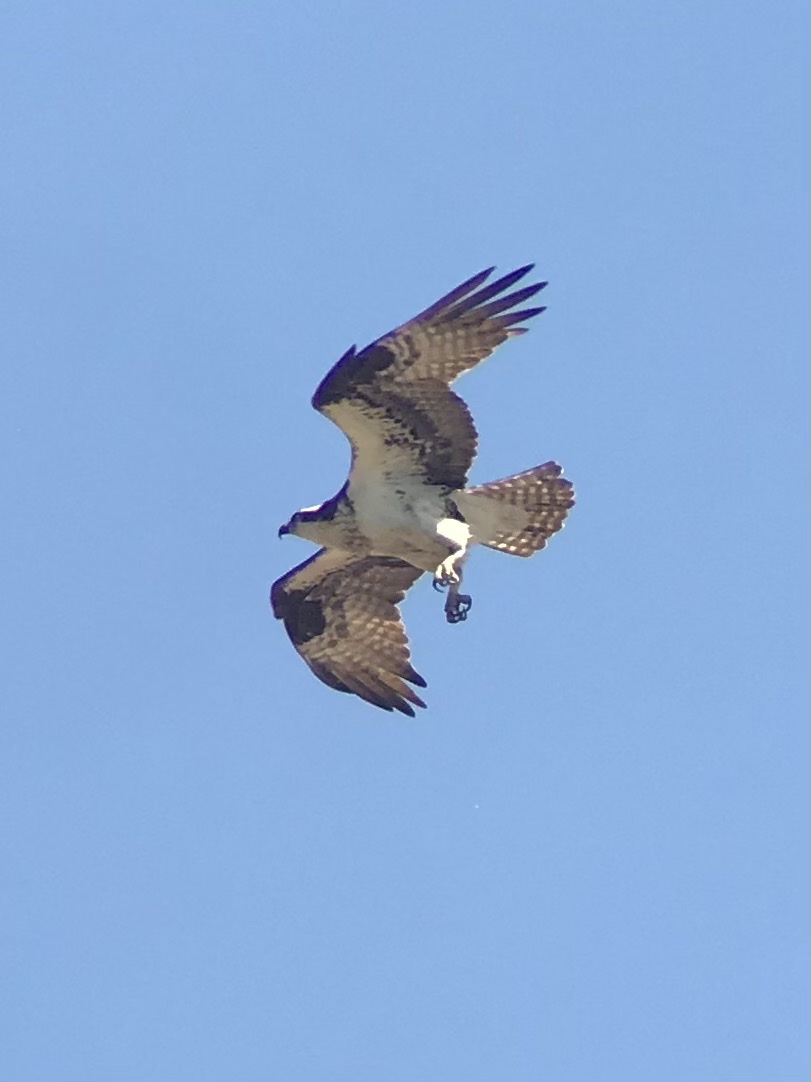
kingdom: Animalia
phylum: Chordata
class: Aves
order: Accipitriformes
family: Pandionidae
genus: Pandion
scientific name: Pandion haliaetus
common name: Osprey
